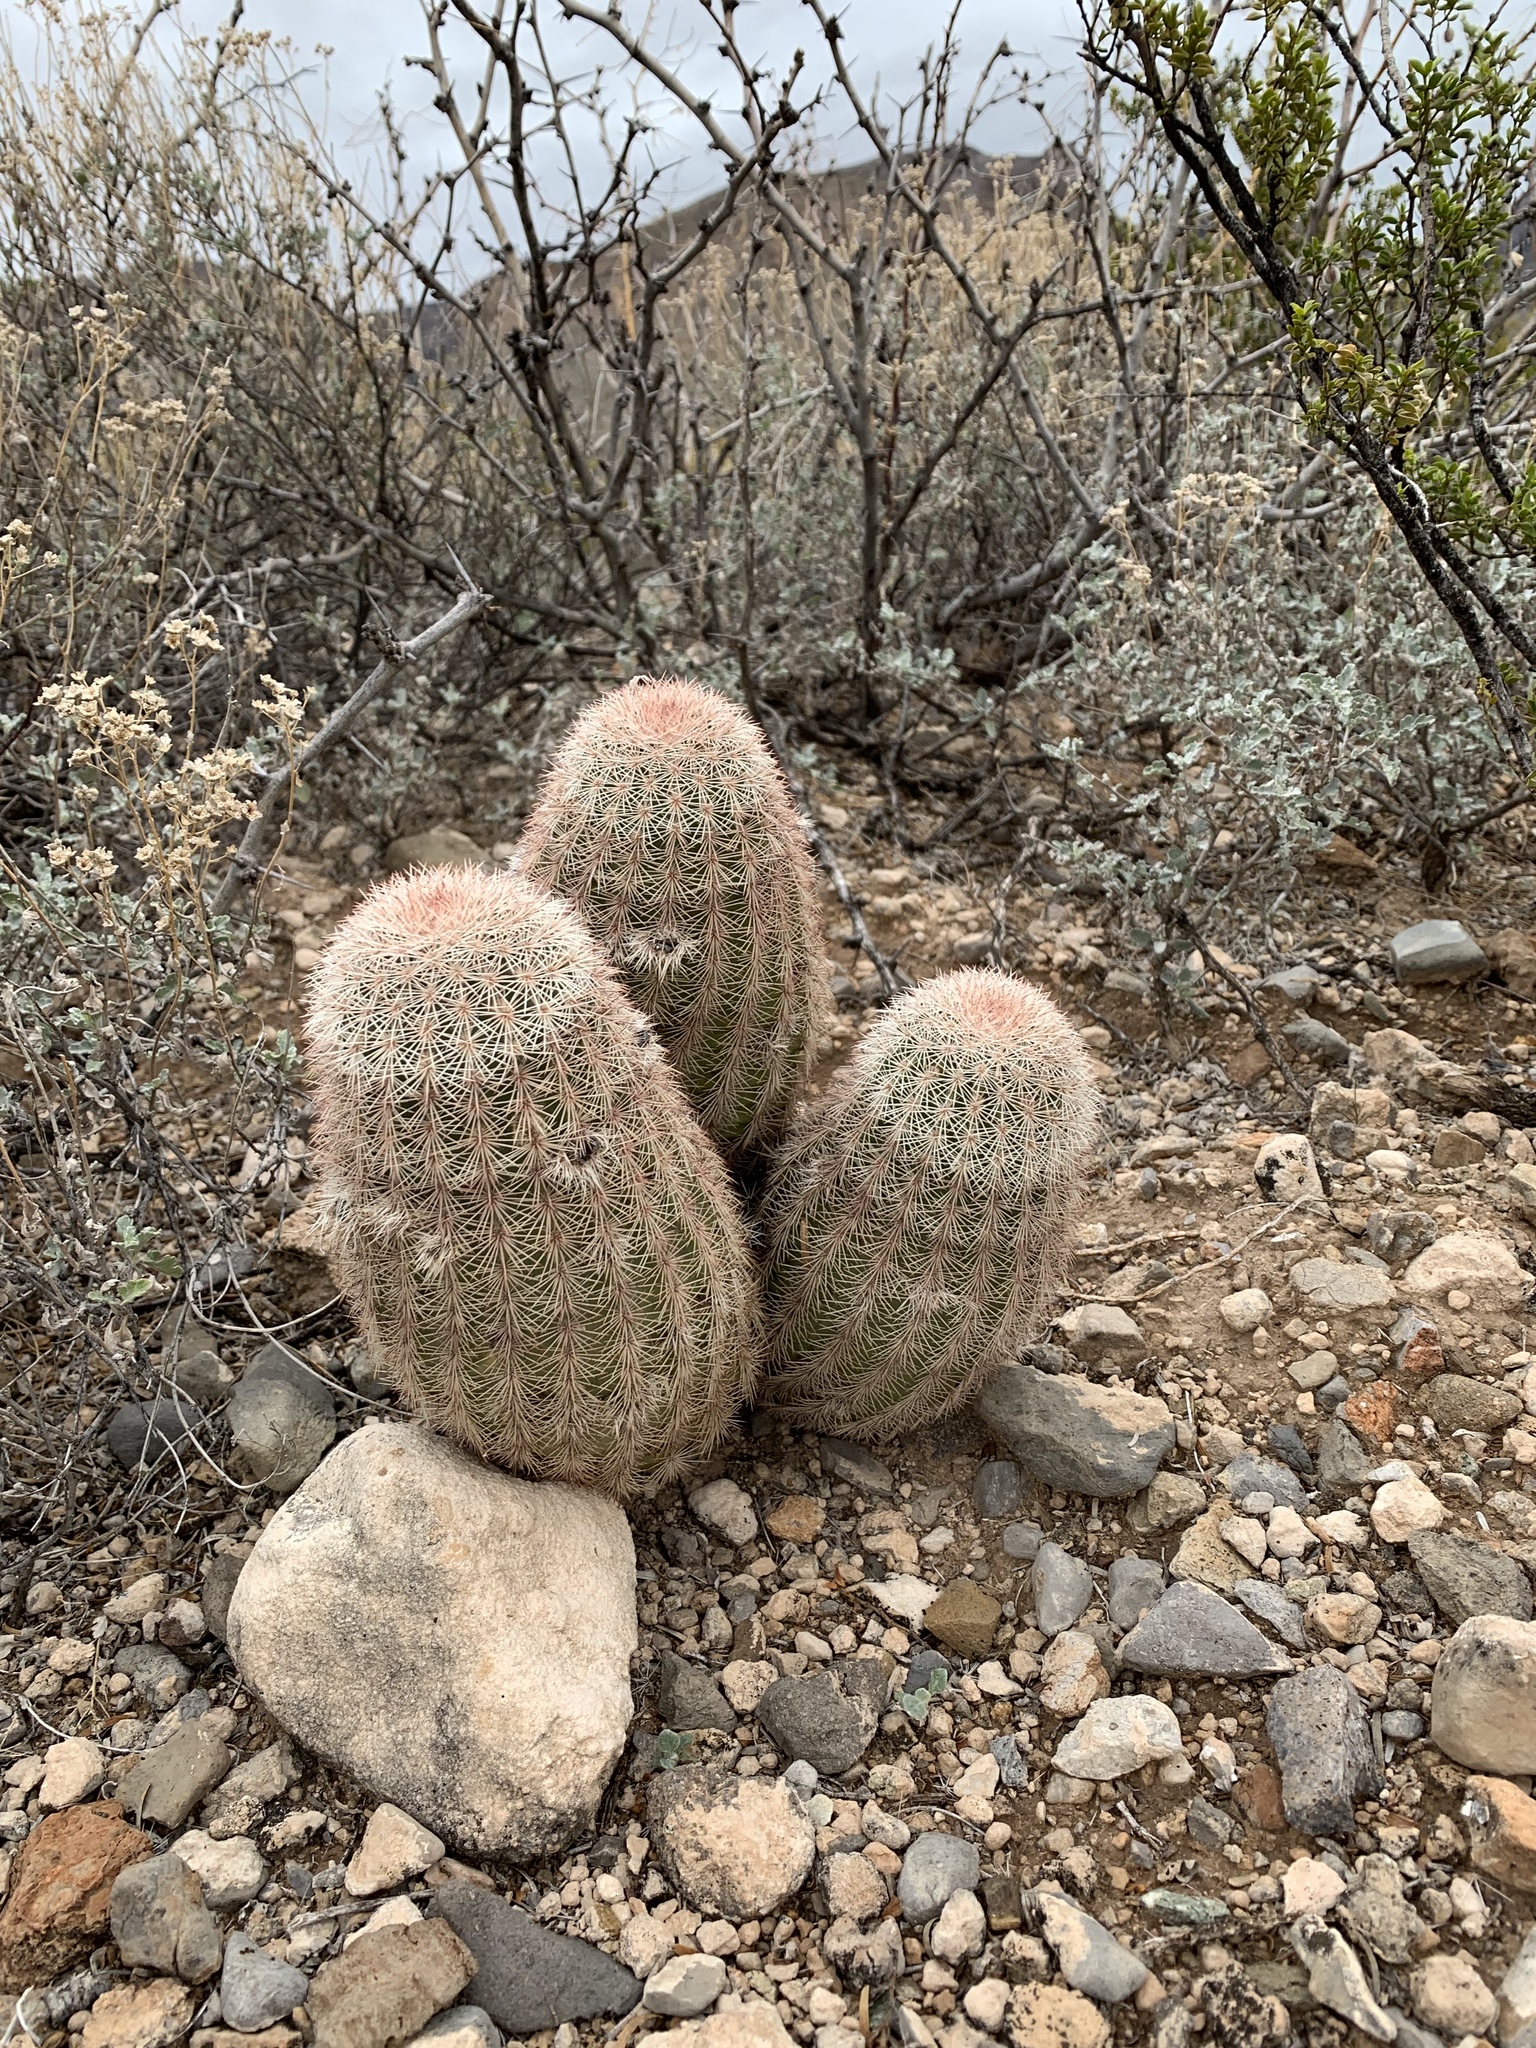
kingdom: Plantae
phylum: Tracheophyta
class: Magnoliopsida
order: Caryophyllales
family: Cactaceae
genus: Echinocereus
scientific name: Echinocereus dasyacanthus
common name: Spiny hedgehog cactus
